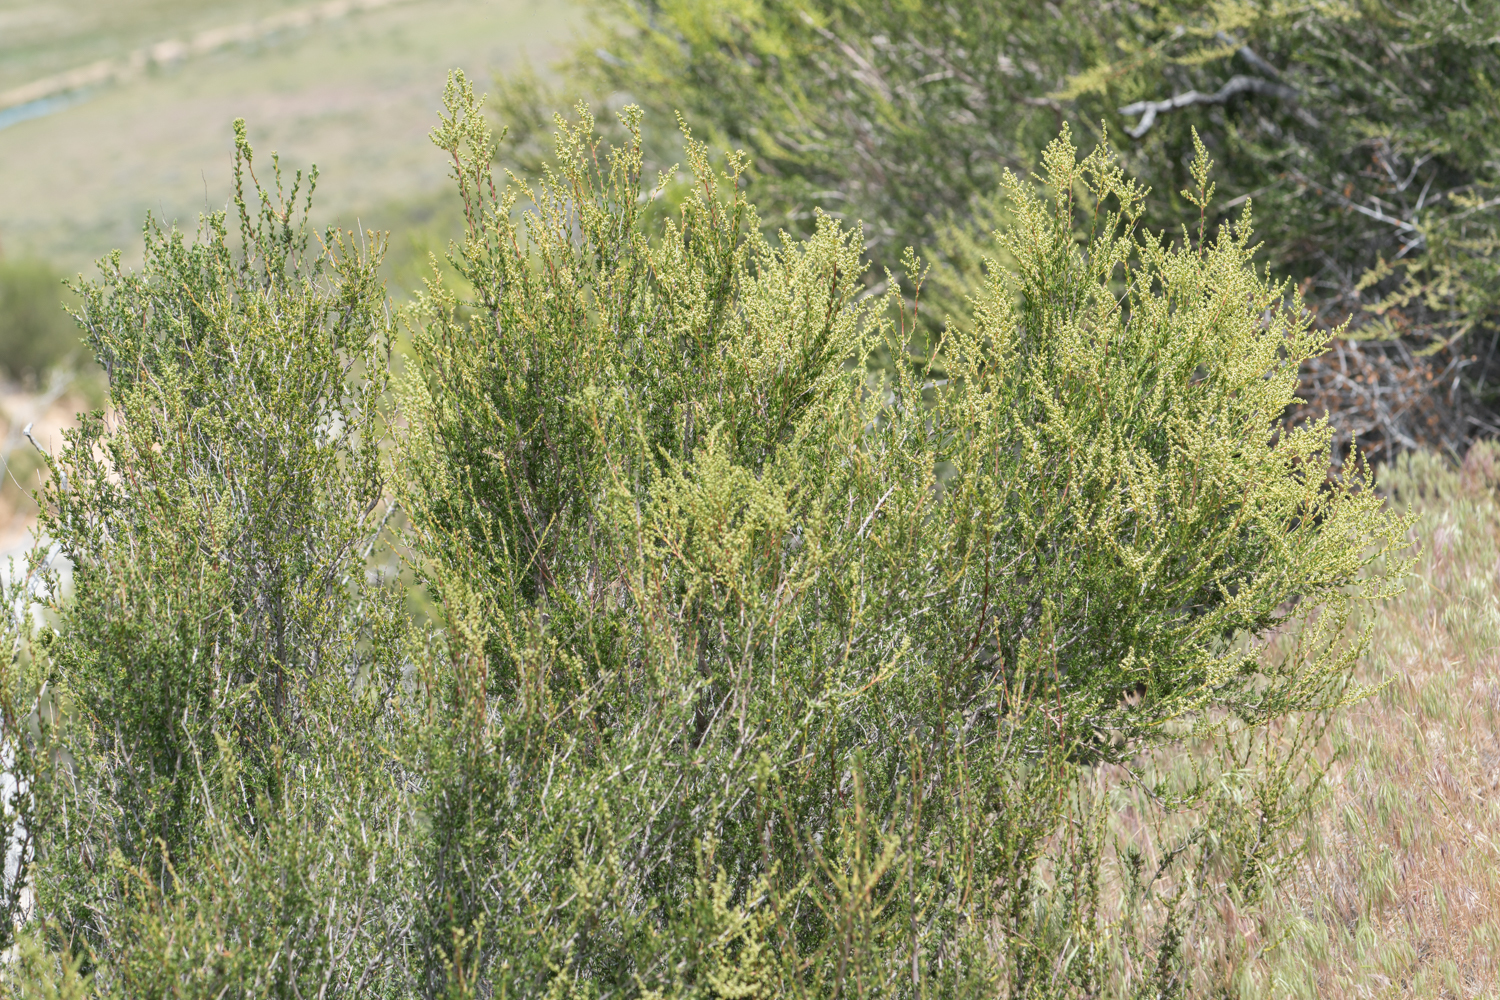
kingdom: Plantae
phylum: Tracheophyta
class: Magnoliopsida
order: Rosales
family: Rosaceae
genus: Adenostoma
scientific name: Adenostoma fasciculatum
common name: Chamise
